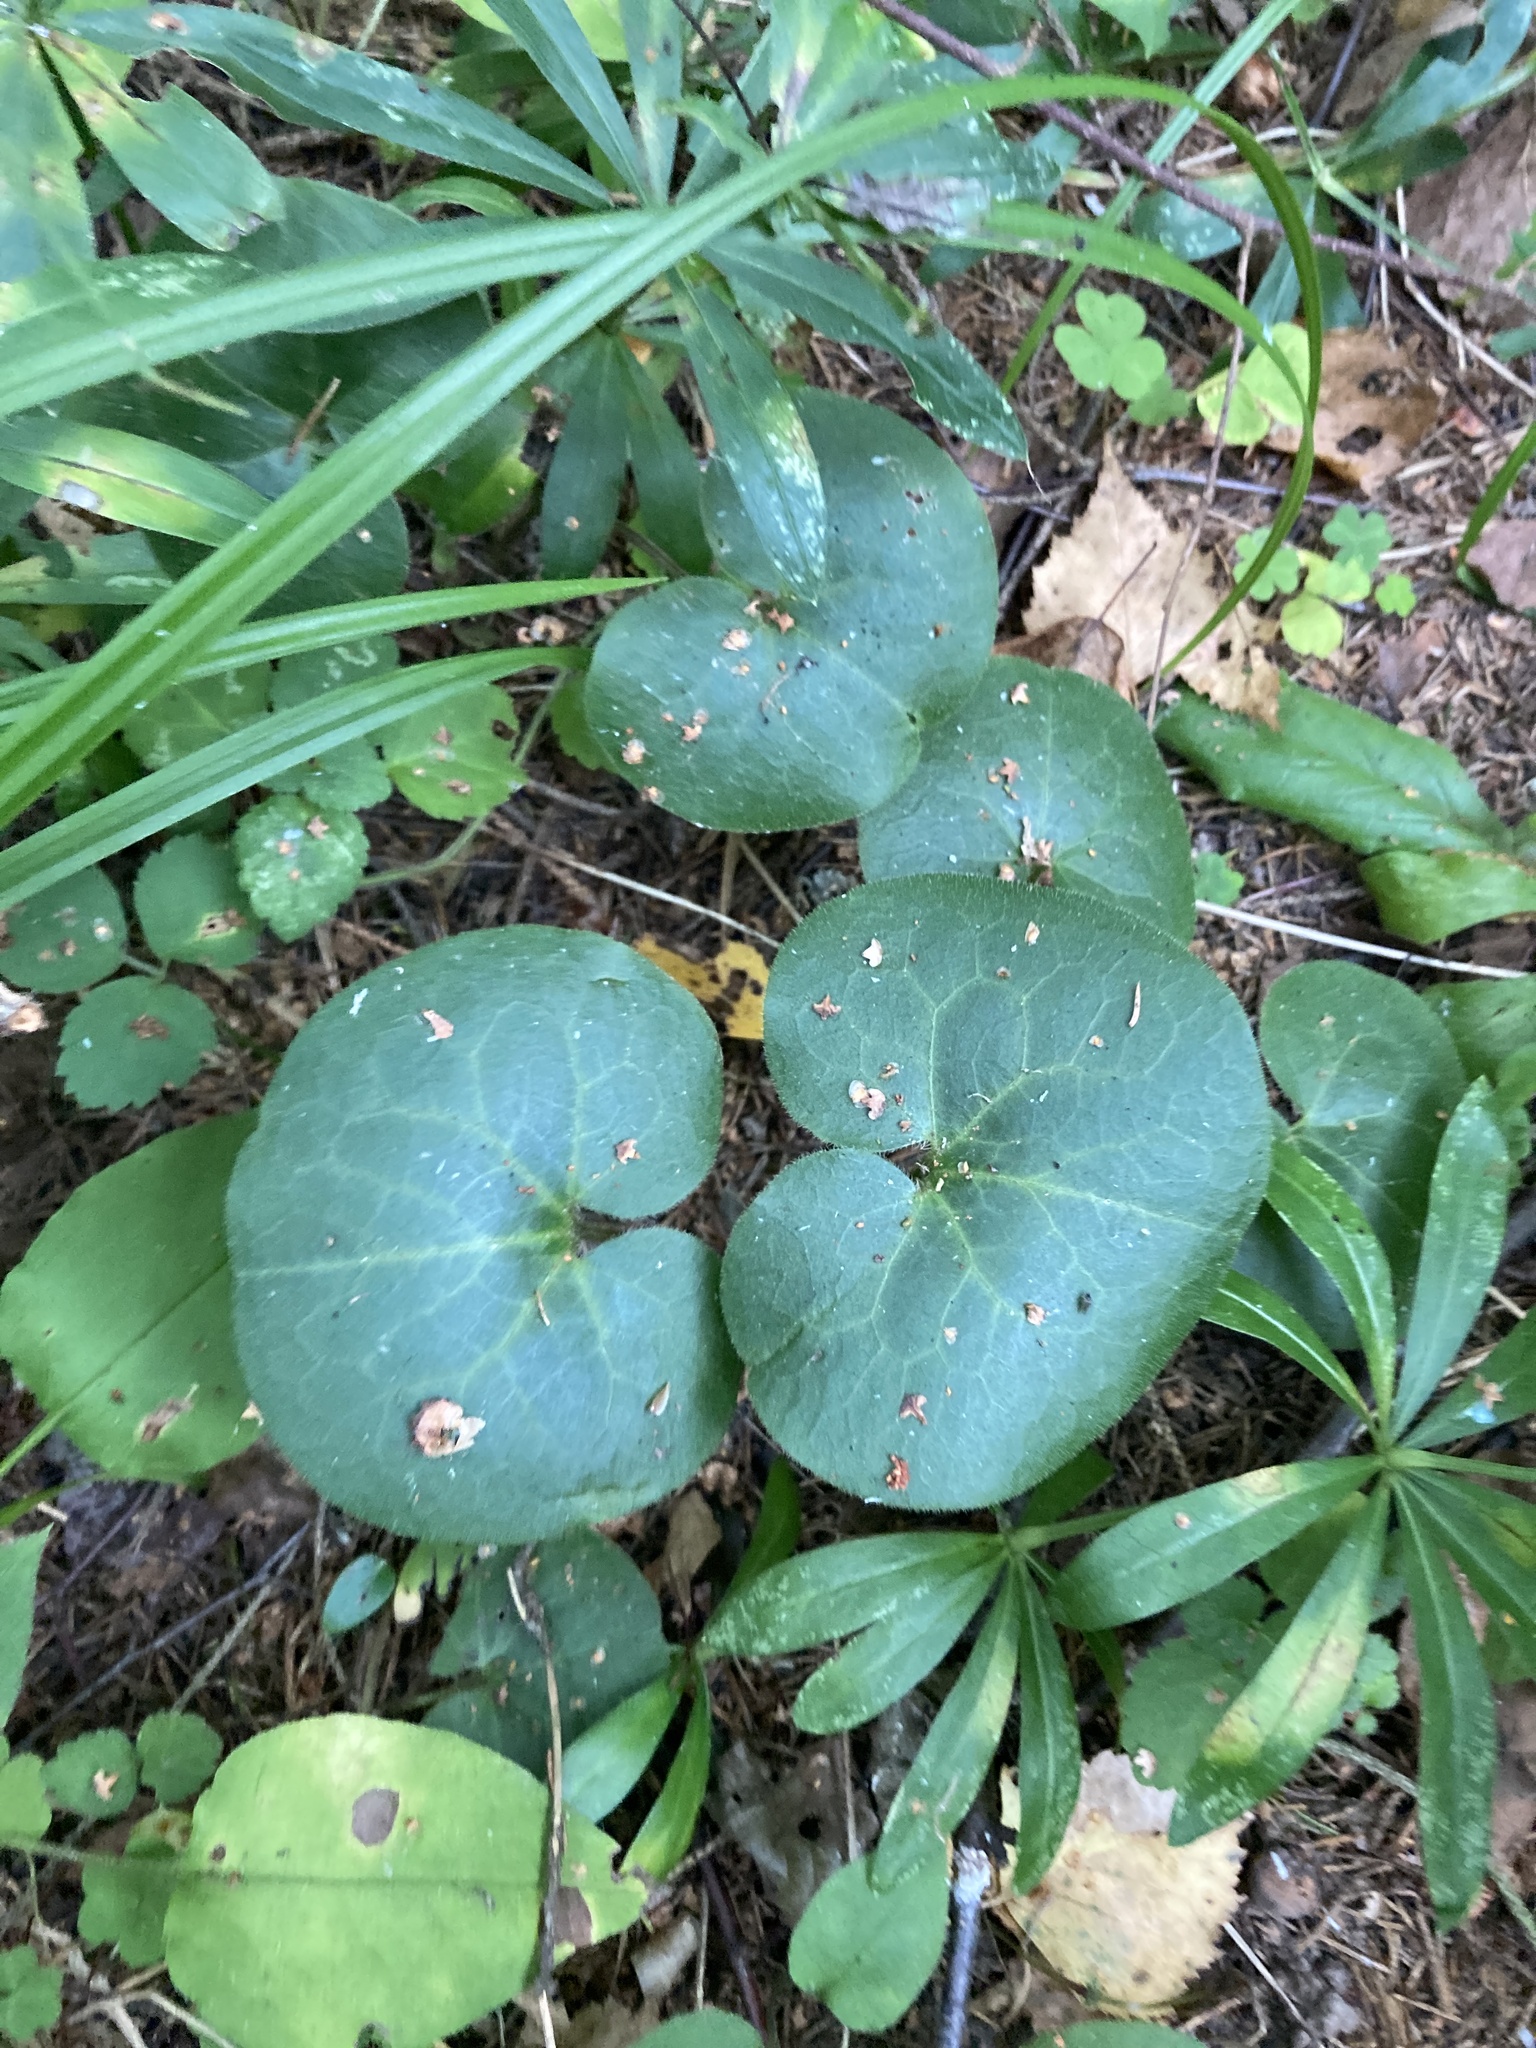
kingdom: Plantae
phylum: Tracheophyta
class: Magnoliopsida
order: Piperales
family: Aristolochiaceae
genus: Asarum
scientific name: Asarum europaeum
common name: Asarabacca
